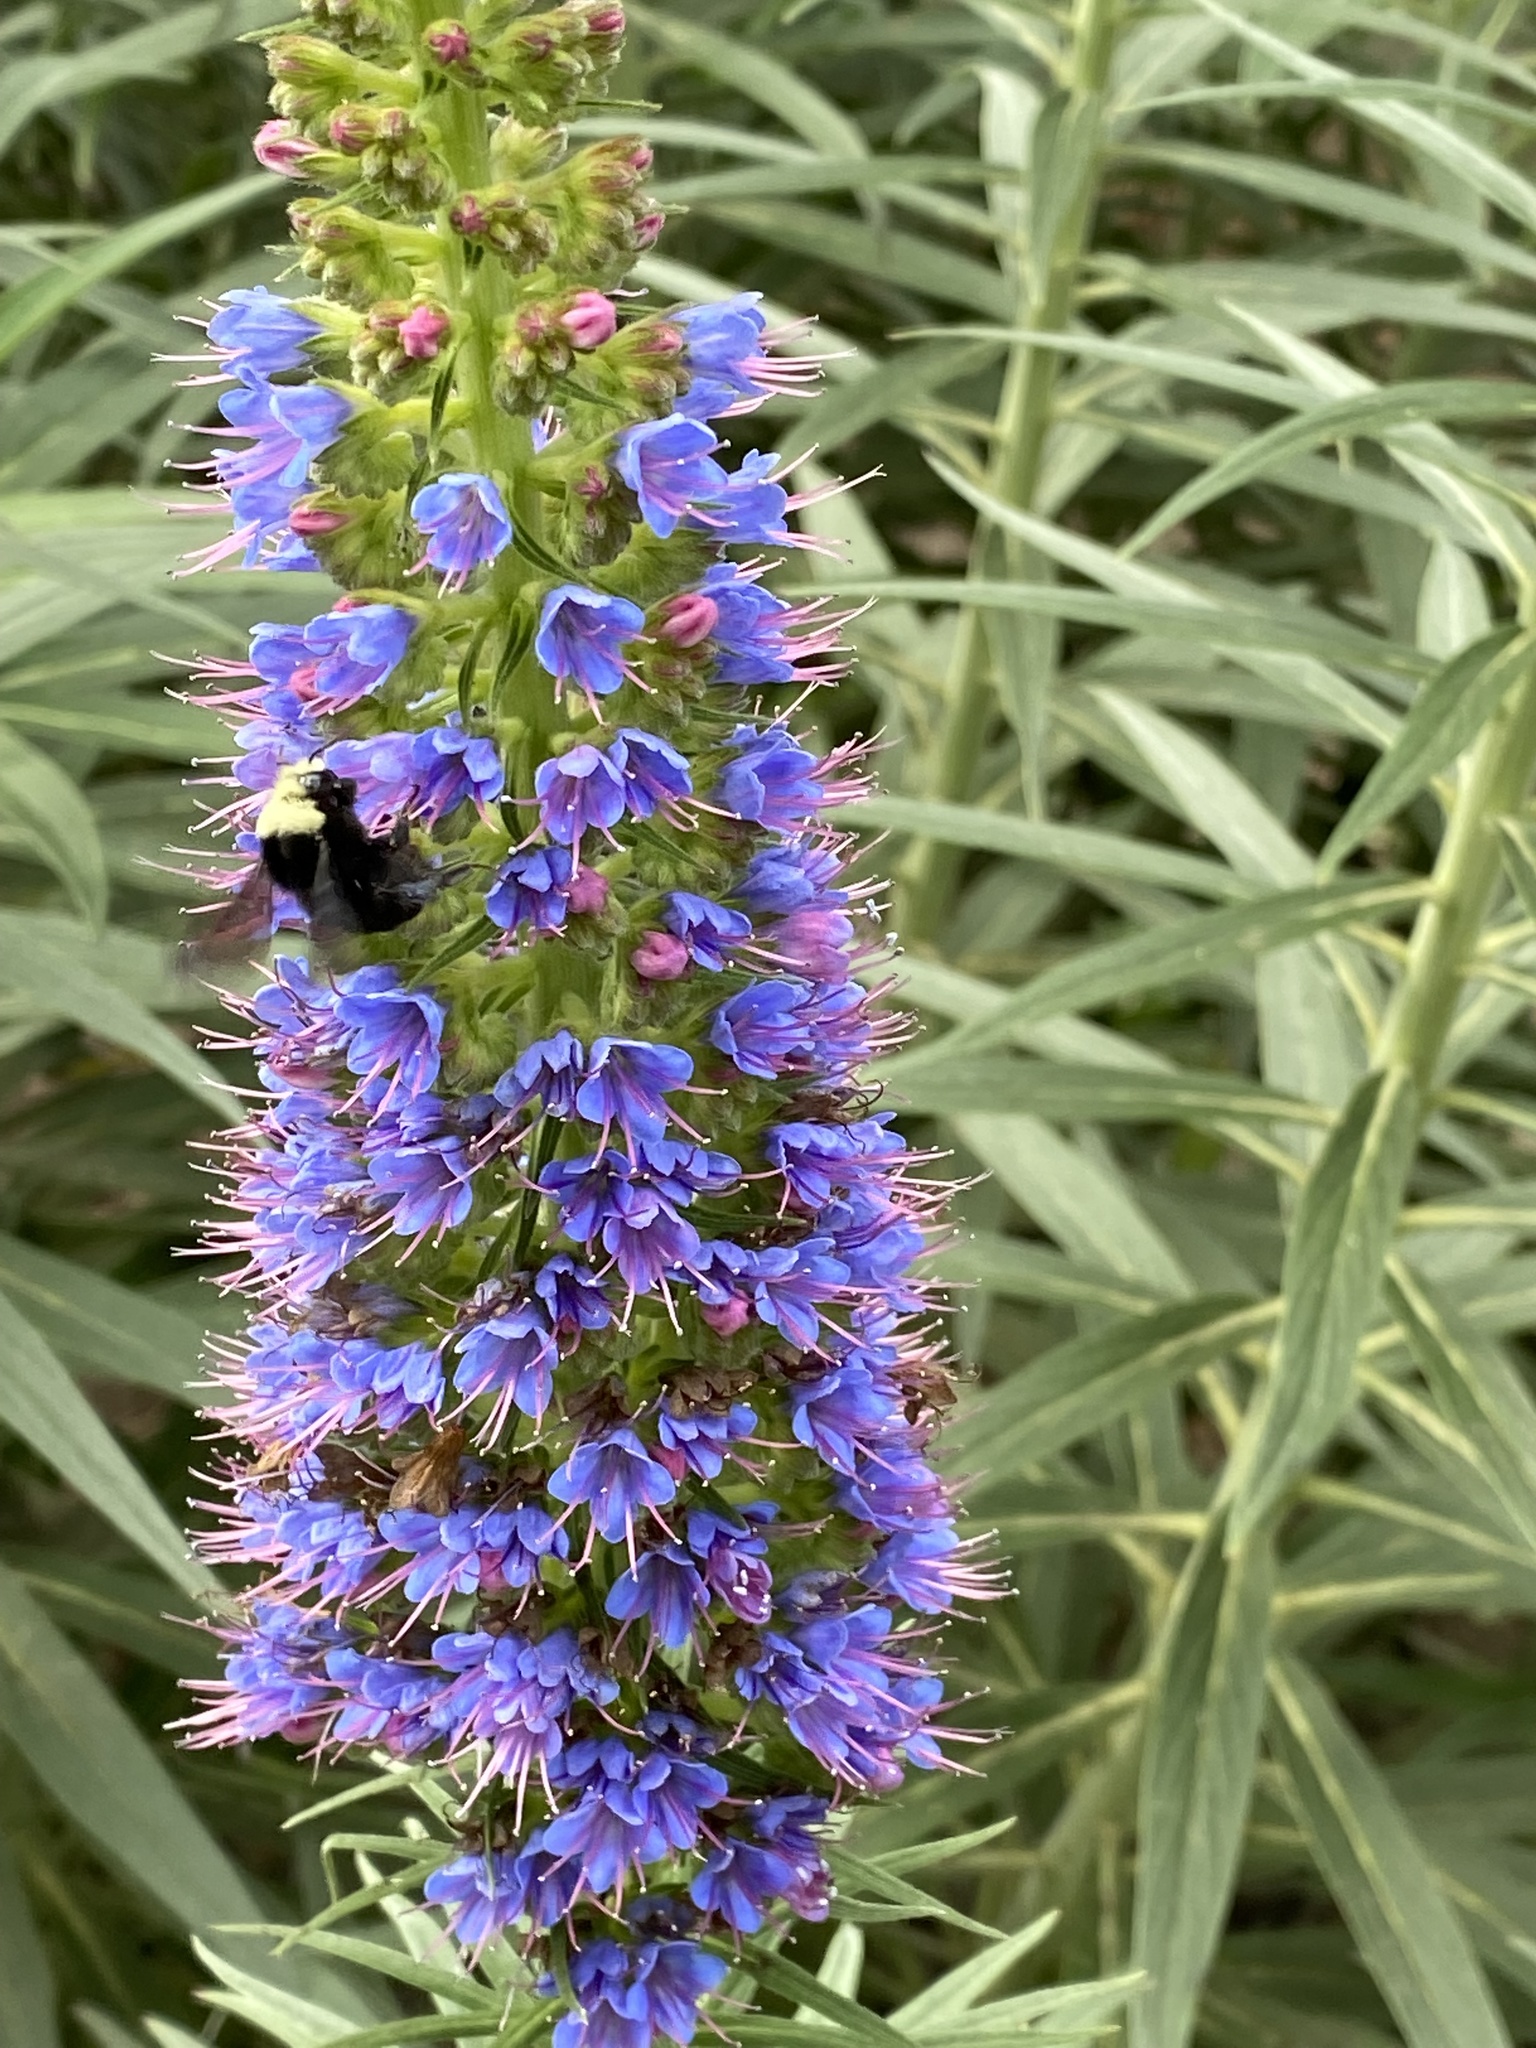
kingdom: Animalia
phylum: Arthropoda
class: Insecta
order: Hymenoptera
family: Apidae
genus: Bombus
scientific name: Bombus vosnesenskii
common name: Vosnesensky bumble bee
